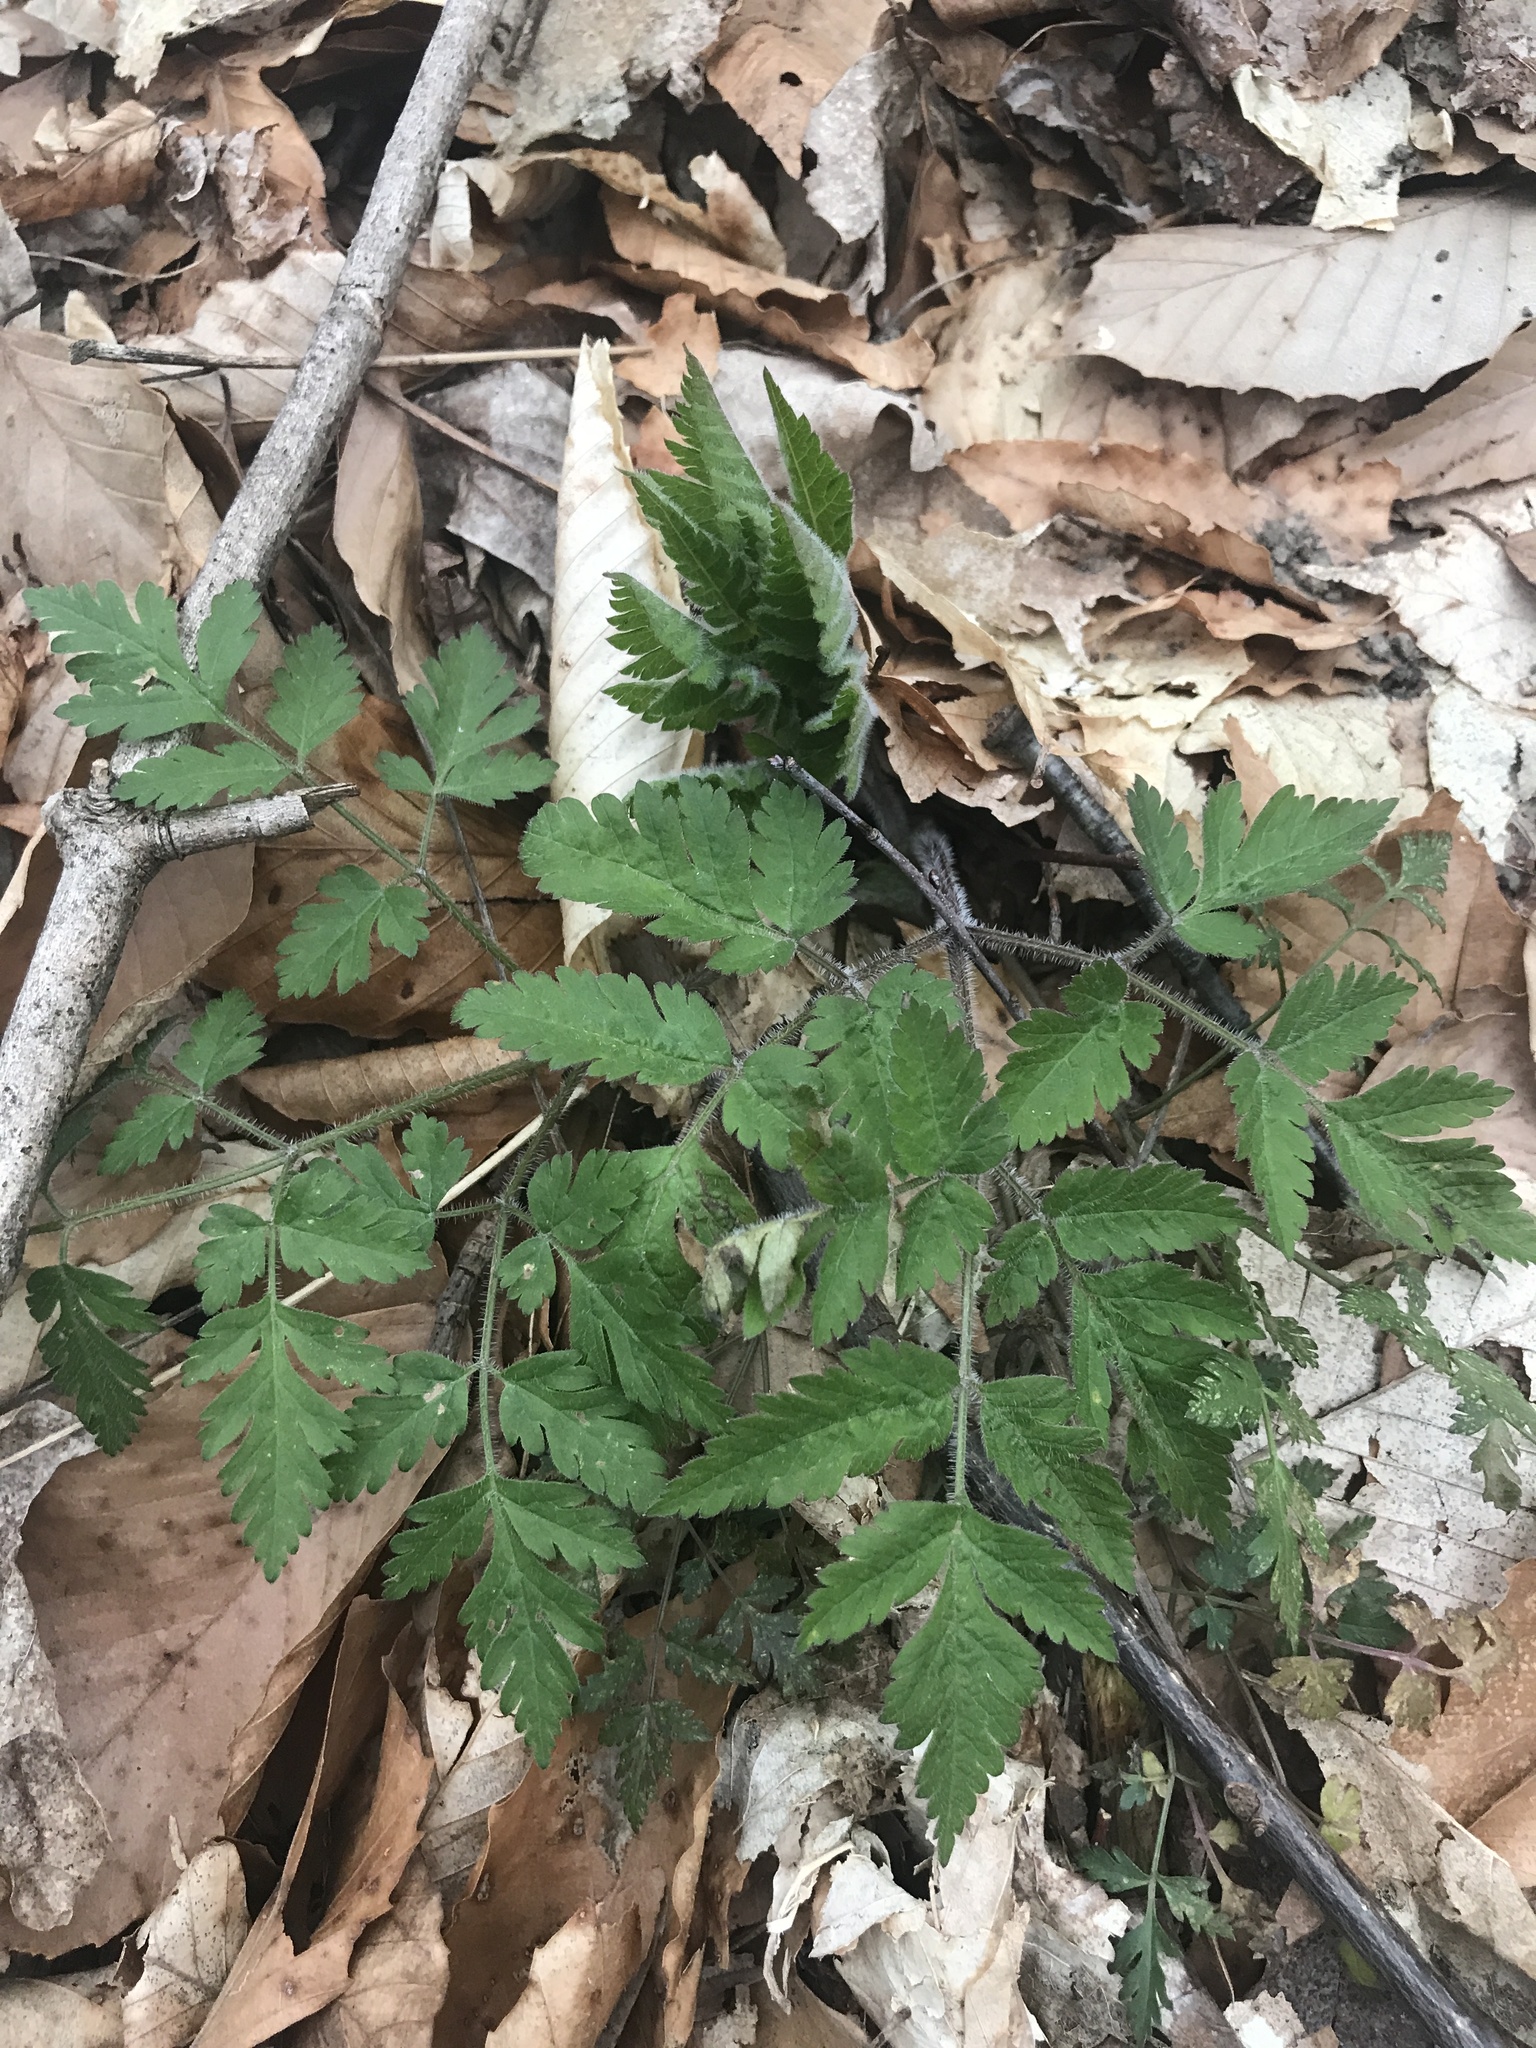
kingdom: Plantae
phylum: Tracheophyta
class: Magnoliopsida
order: Apiales
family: Apiaceae
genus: Osmorhiza
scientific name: Osmorhiza claytonii
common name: Hairy sweet cicely
